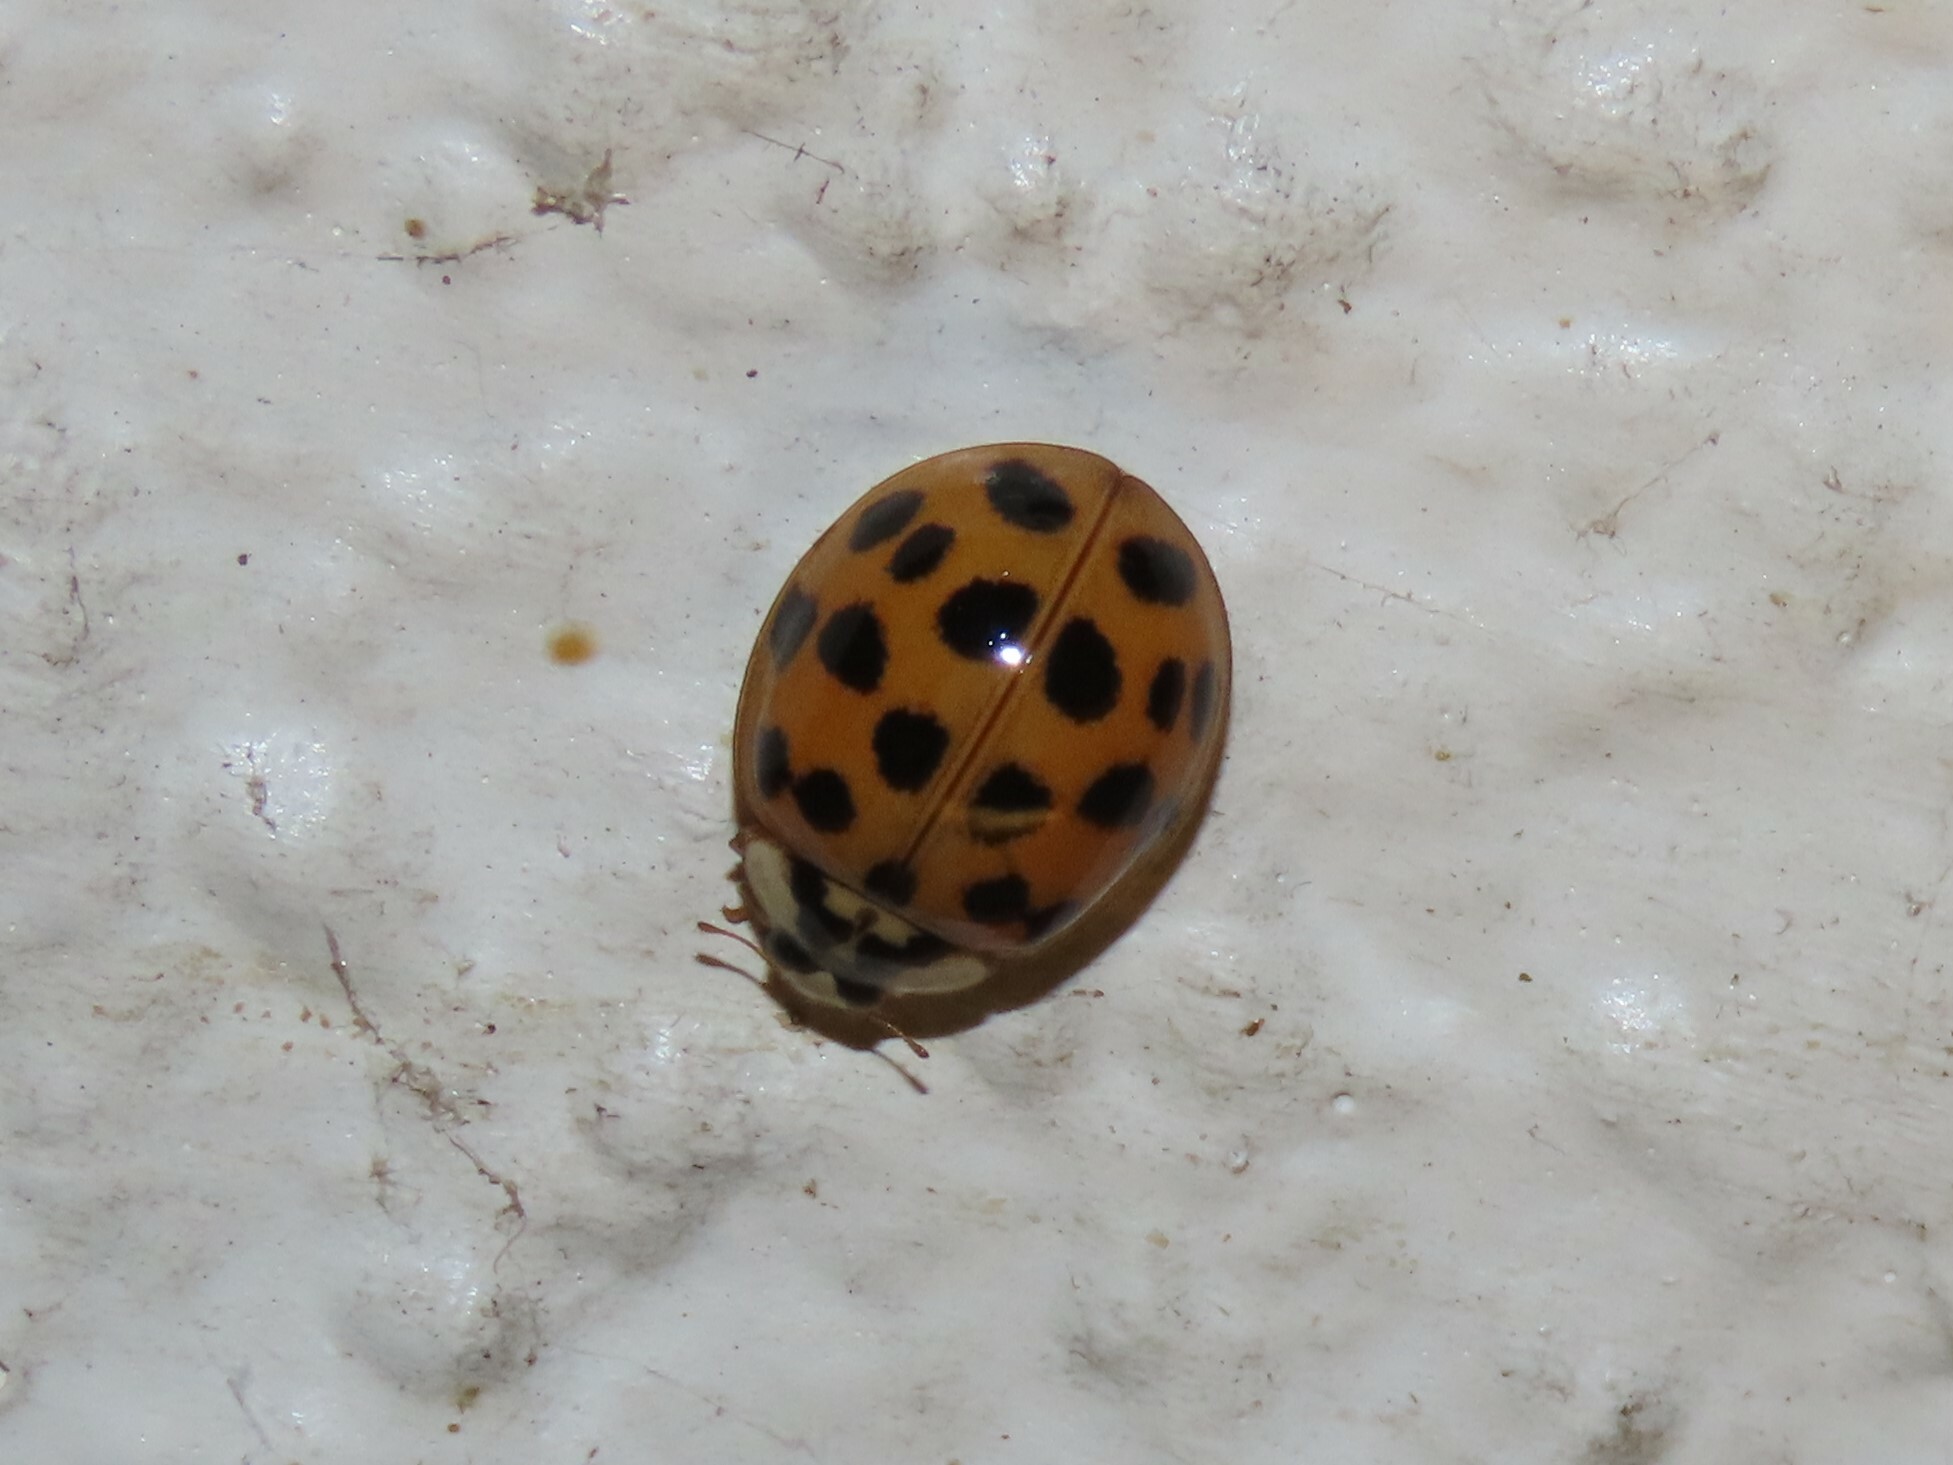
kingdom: Animalia
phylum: Arthropoda
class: Insecta
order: Coleoptera
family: Coccinellidae
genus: Harmonia
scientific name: Harmonia axyridis
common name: Harlequin ladybird
